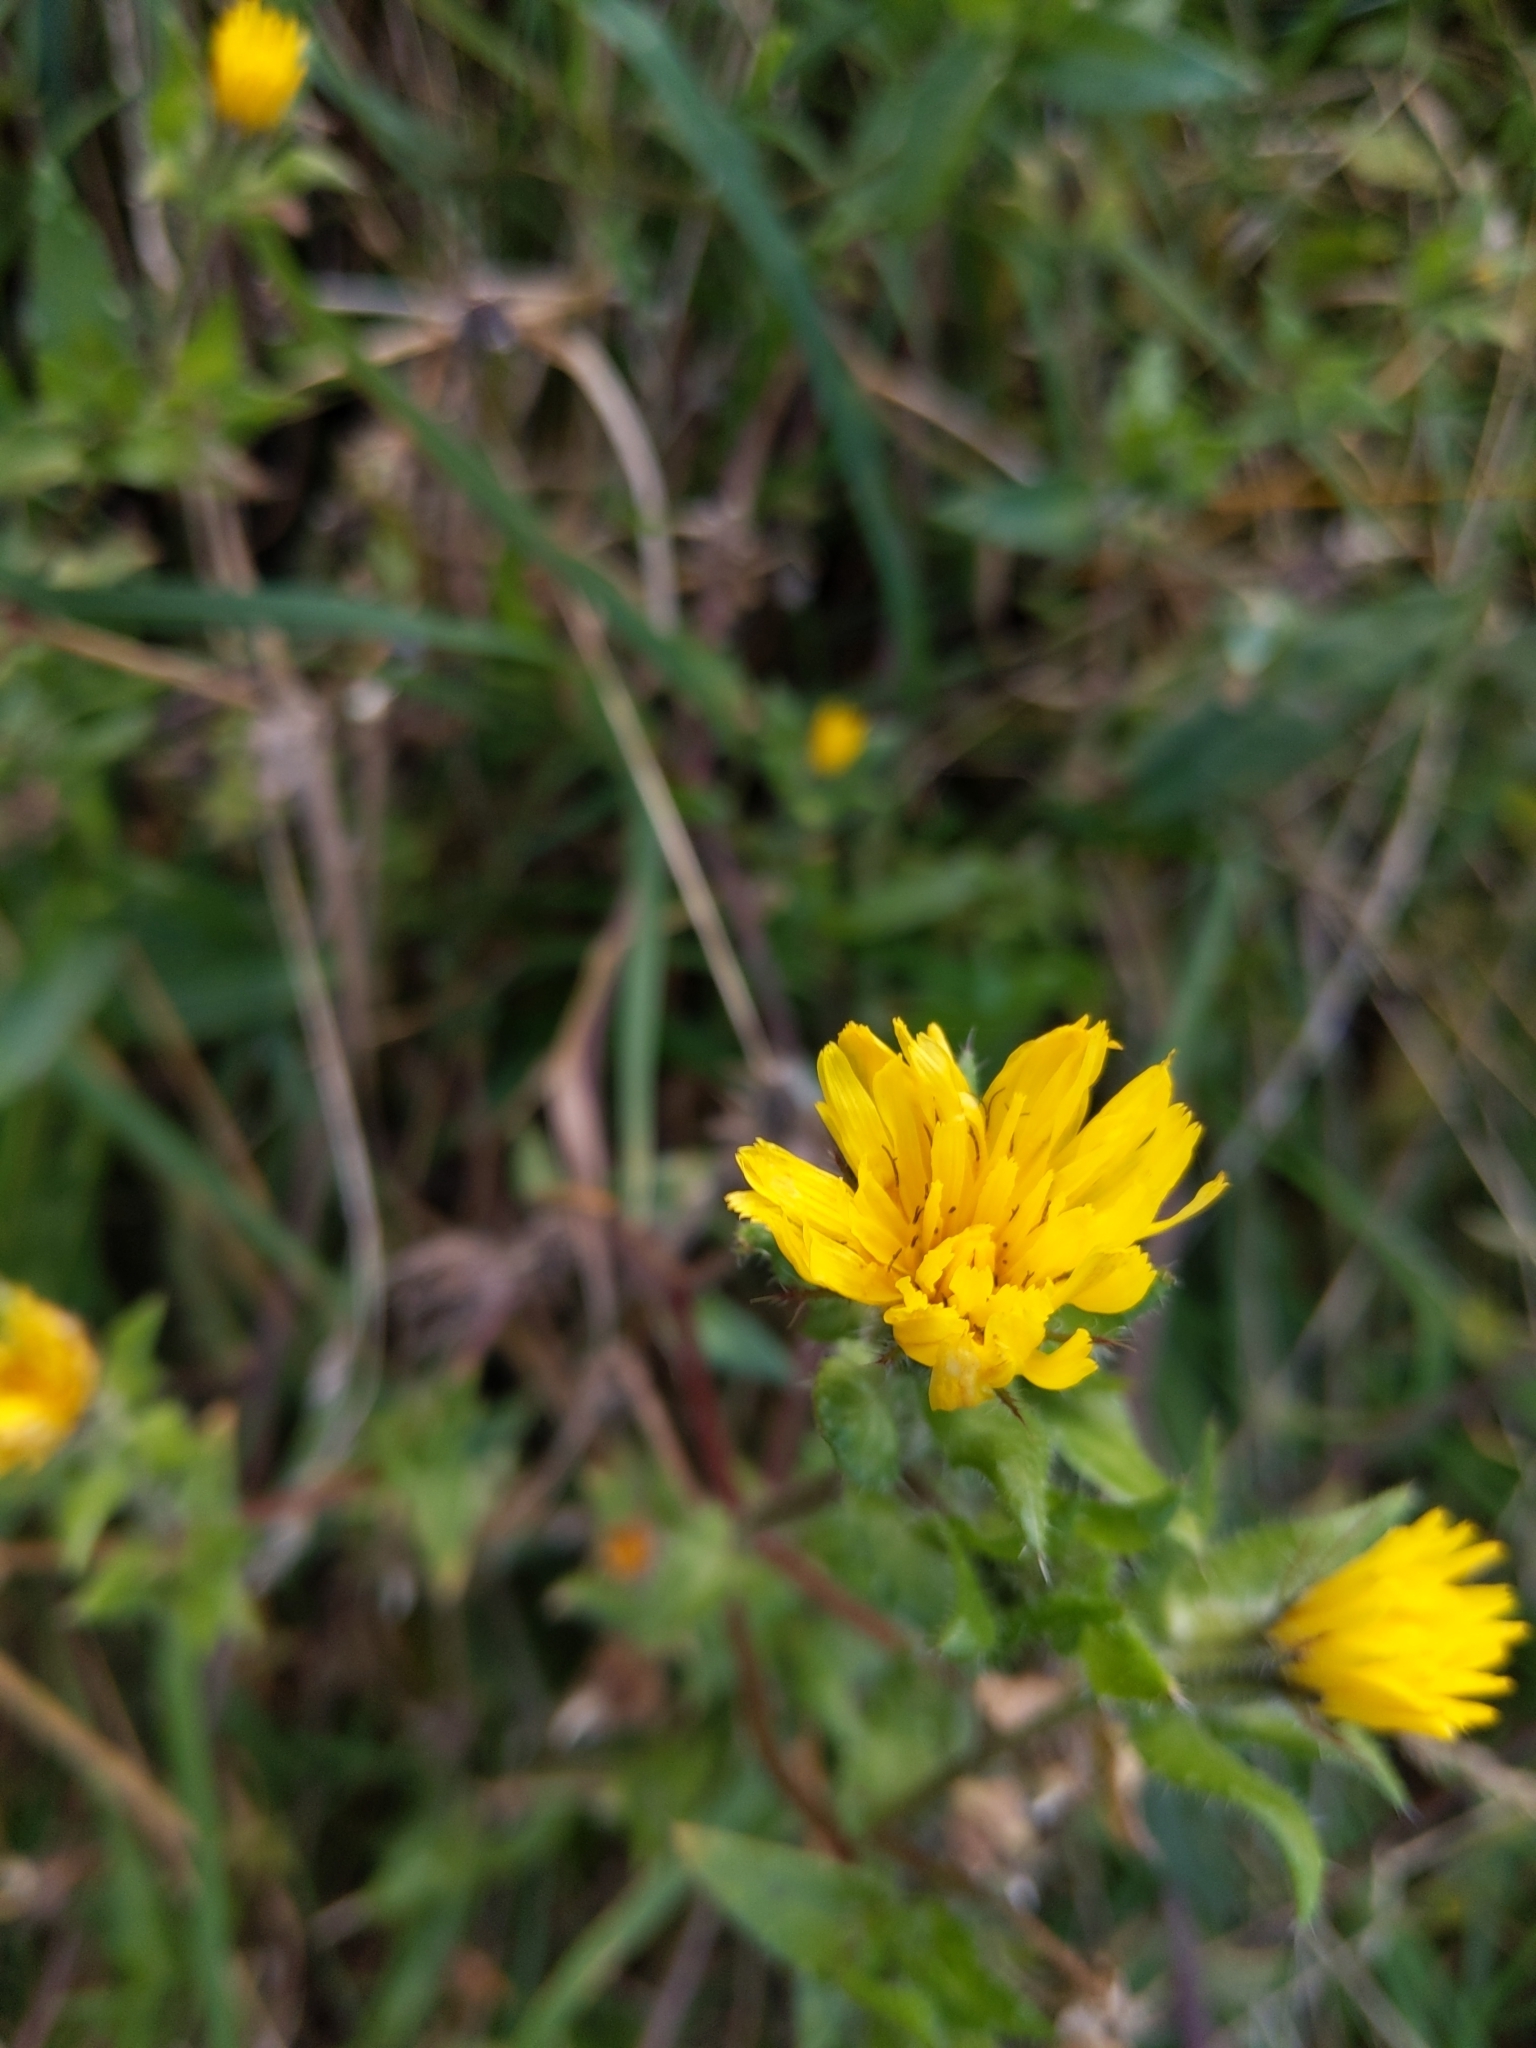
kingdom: Plantae
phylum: Tracheophyta
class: Magnoliopsida
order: Asterales
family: Asteraceae
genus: Helminthotheca
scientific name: Helminthotheca echioides
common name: Ox-tongue
